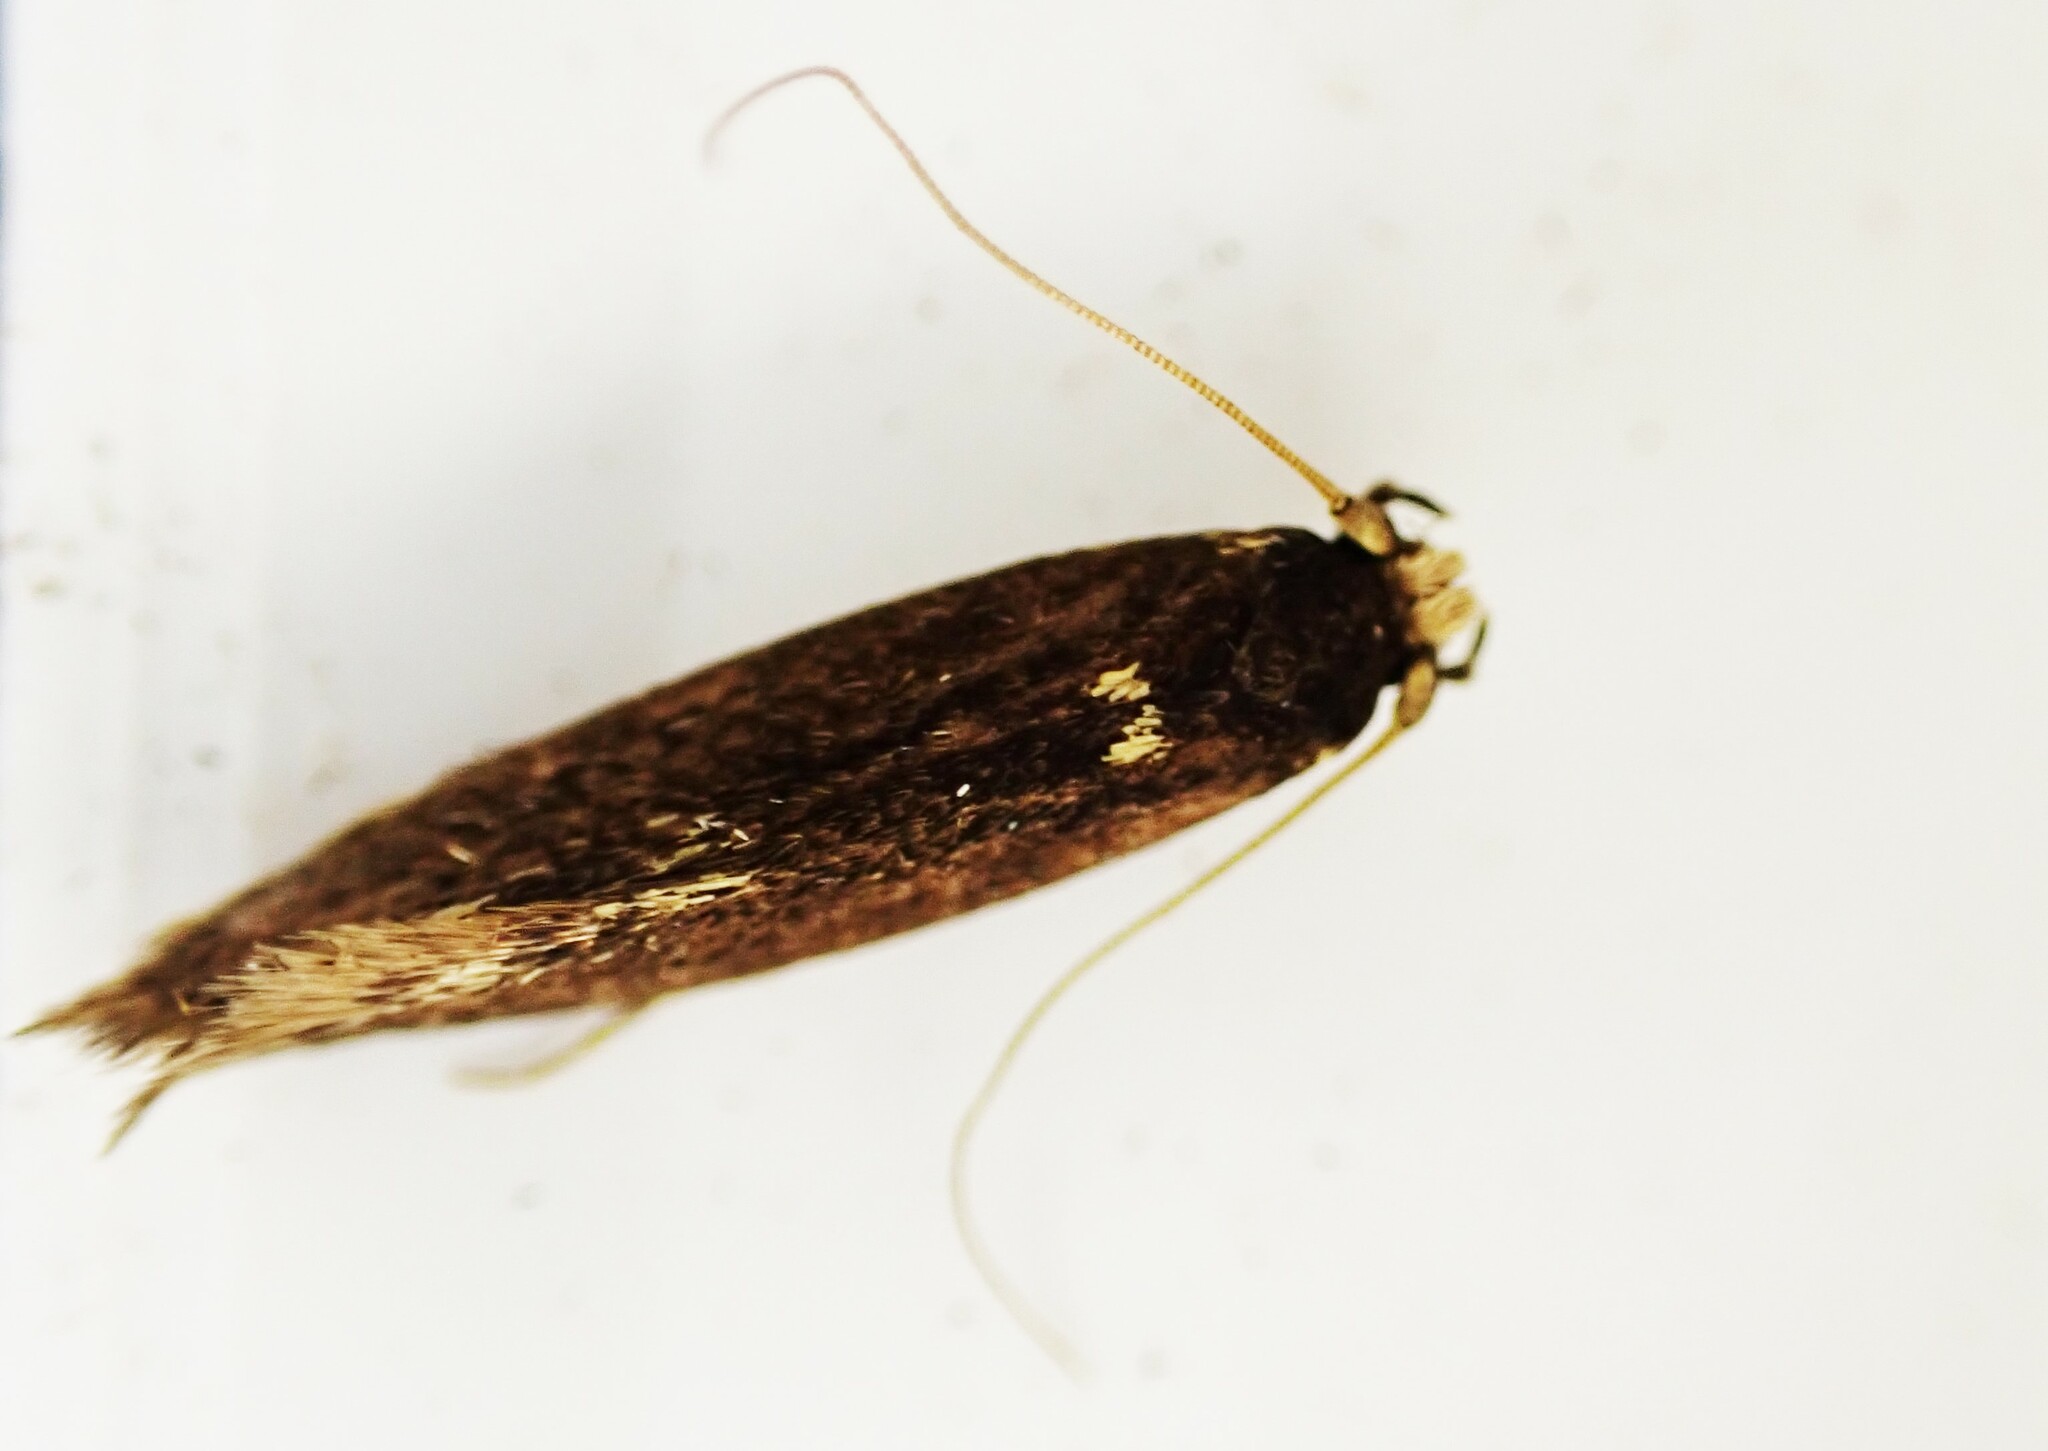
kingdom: Animalia
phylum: Arthropoda
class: Insecta
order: Lepidoptera
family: Tineidae
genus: Opogona
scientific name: Opogona omoscopa
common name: Moth
